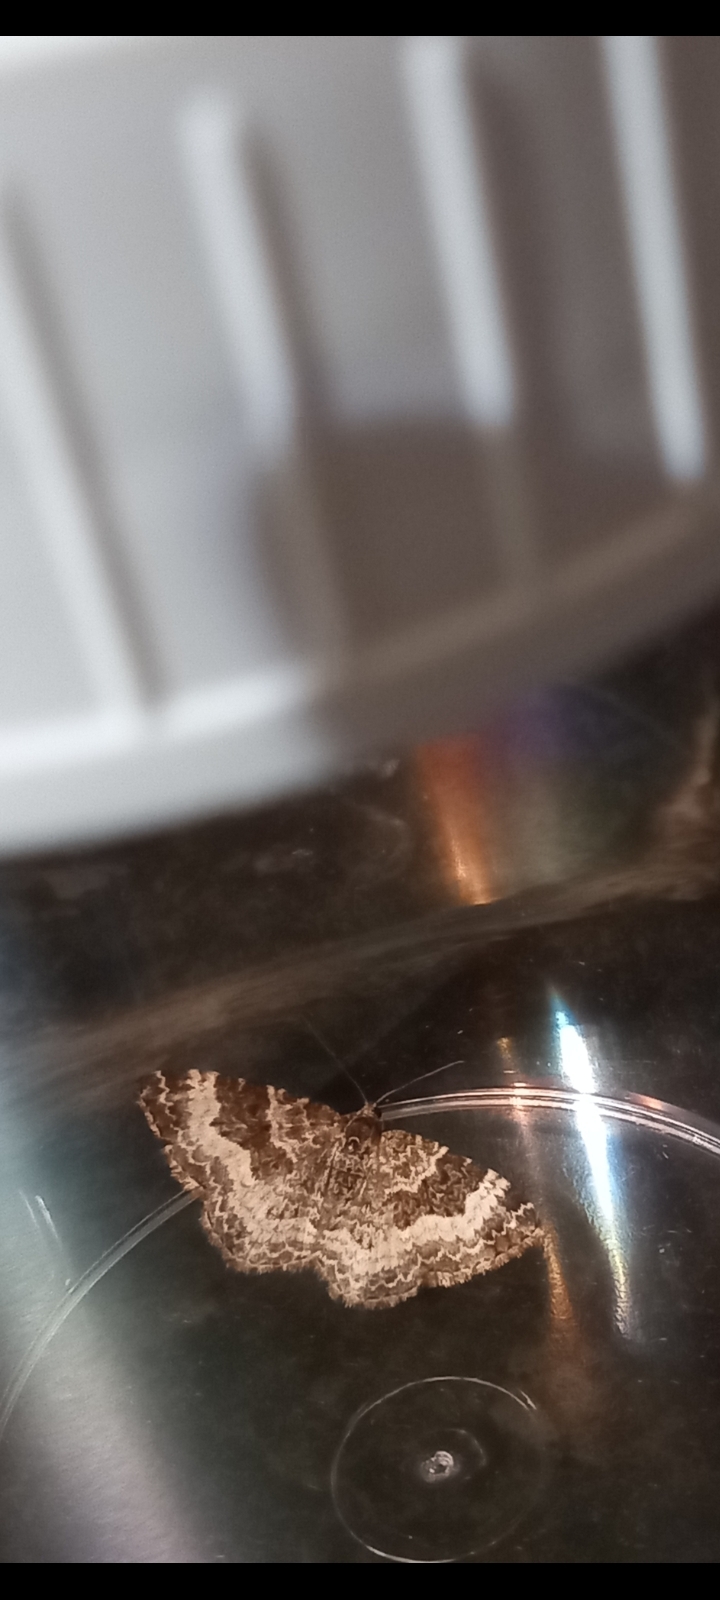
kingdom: Animalia
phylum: Arthropoda
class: Insecta
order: Lepidoptera
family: Geometridae
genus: Epirrhoe
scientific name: Epirrhoe alternata
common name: Common carpet
